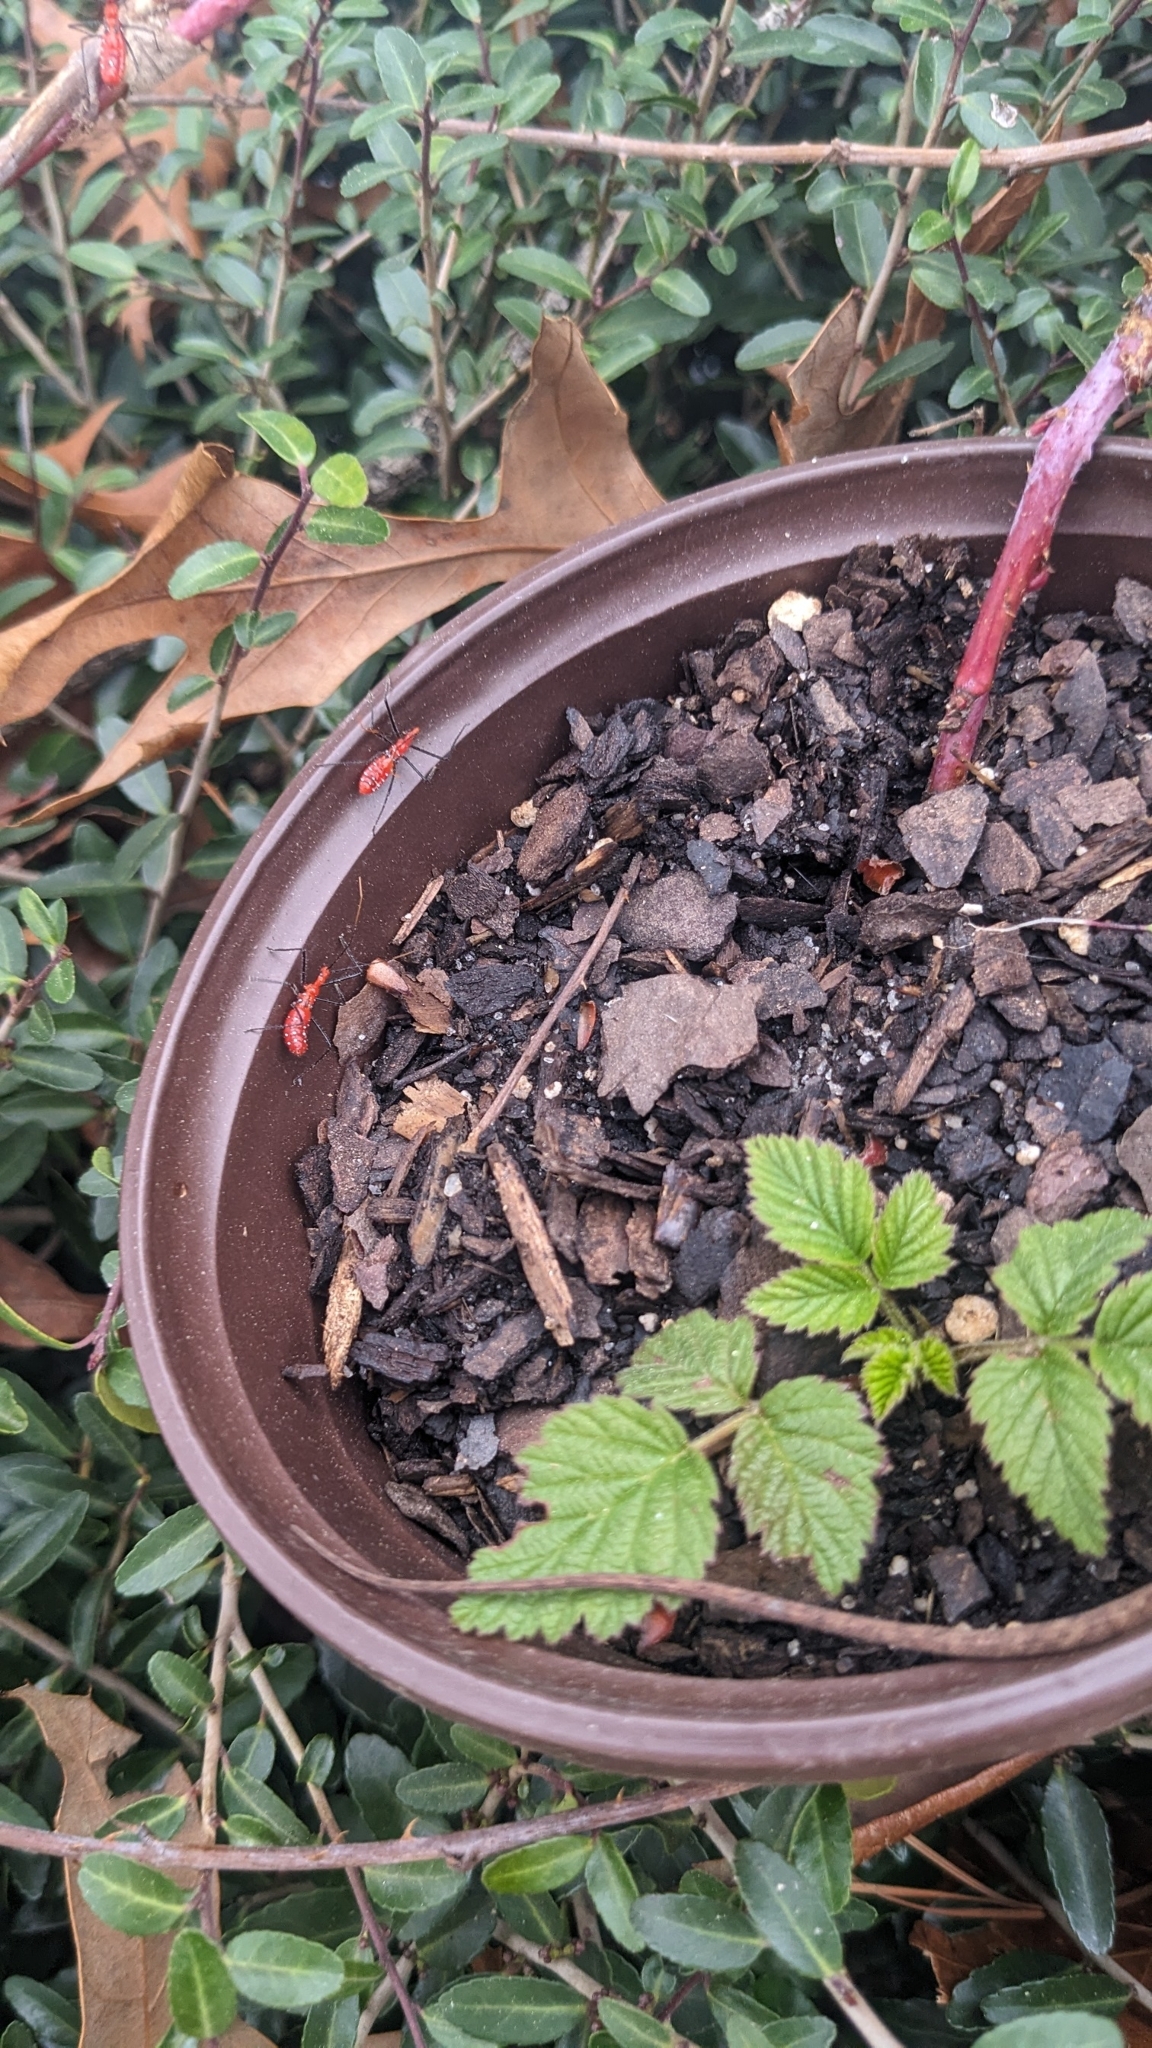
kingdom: Animalia
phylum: Arthropoda
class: Insecta
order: Hemiptera
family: Reduviidae
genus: Zelus
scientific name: Zelus longipes
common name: Milkweed assassin bug
